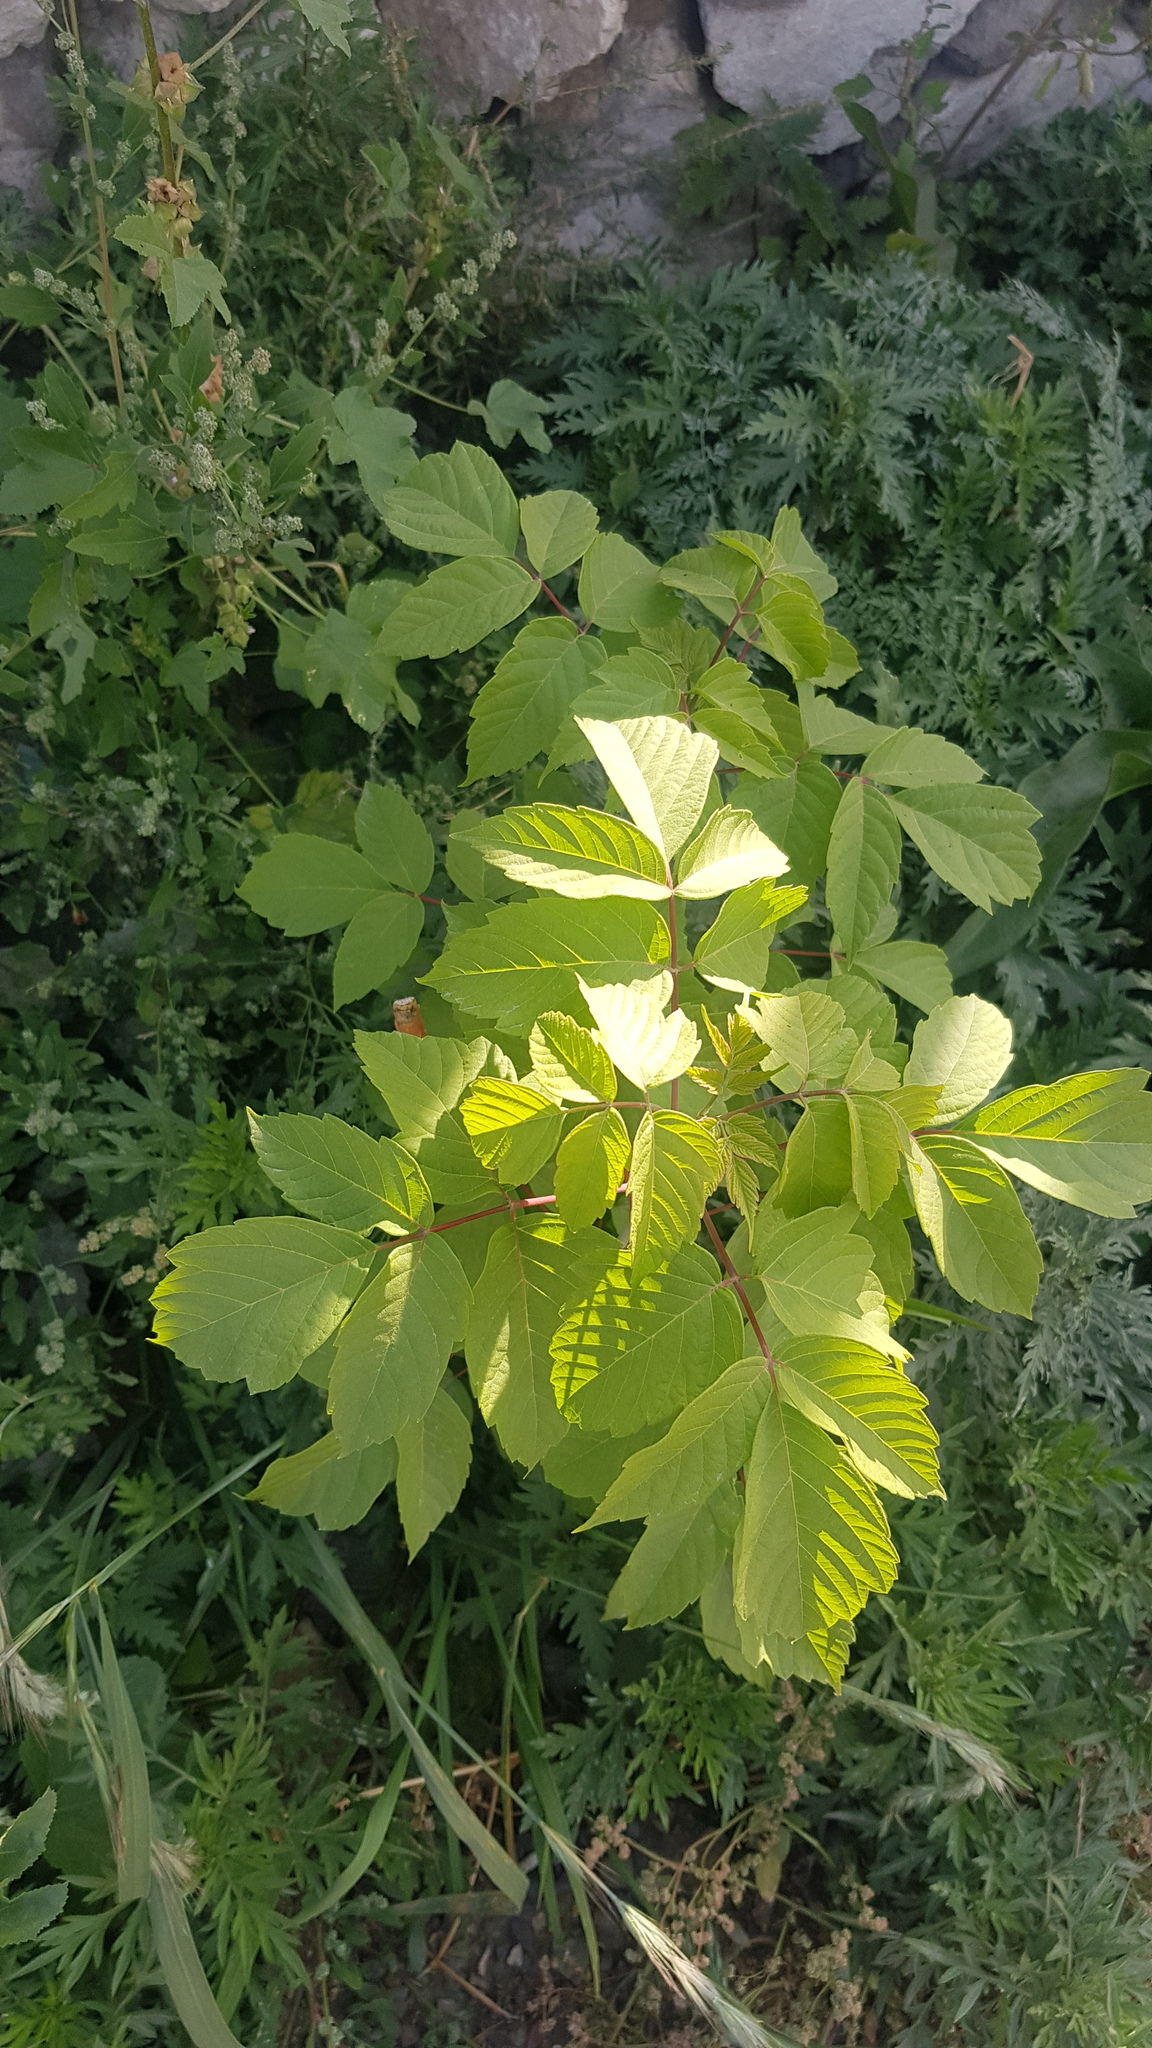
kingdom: Plantae
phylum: Tracheophyta
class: Magnoliopsida
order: Sapindales
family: Sapindaceae
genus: Acer
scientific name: Acer negundo
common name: Ashleaf maple
